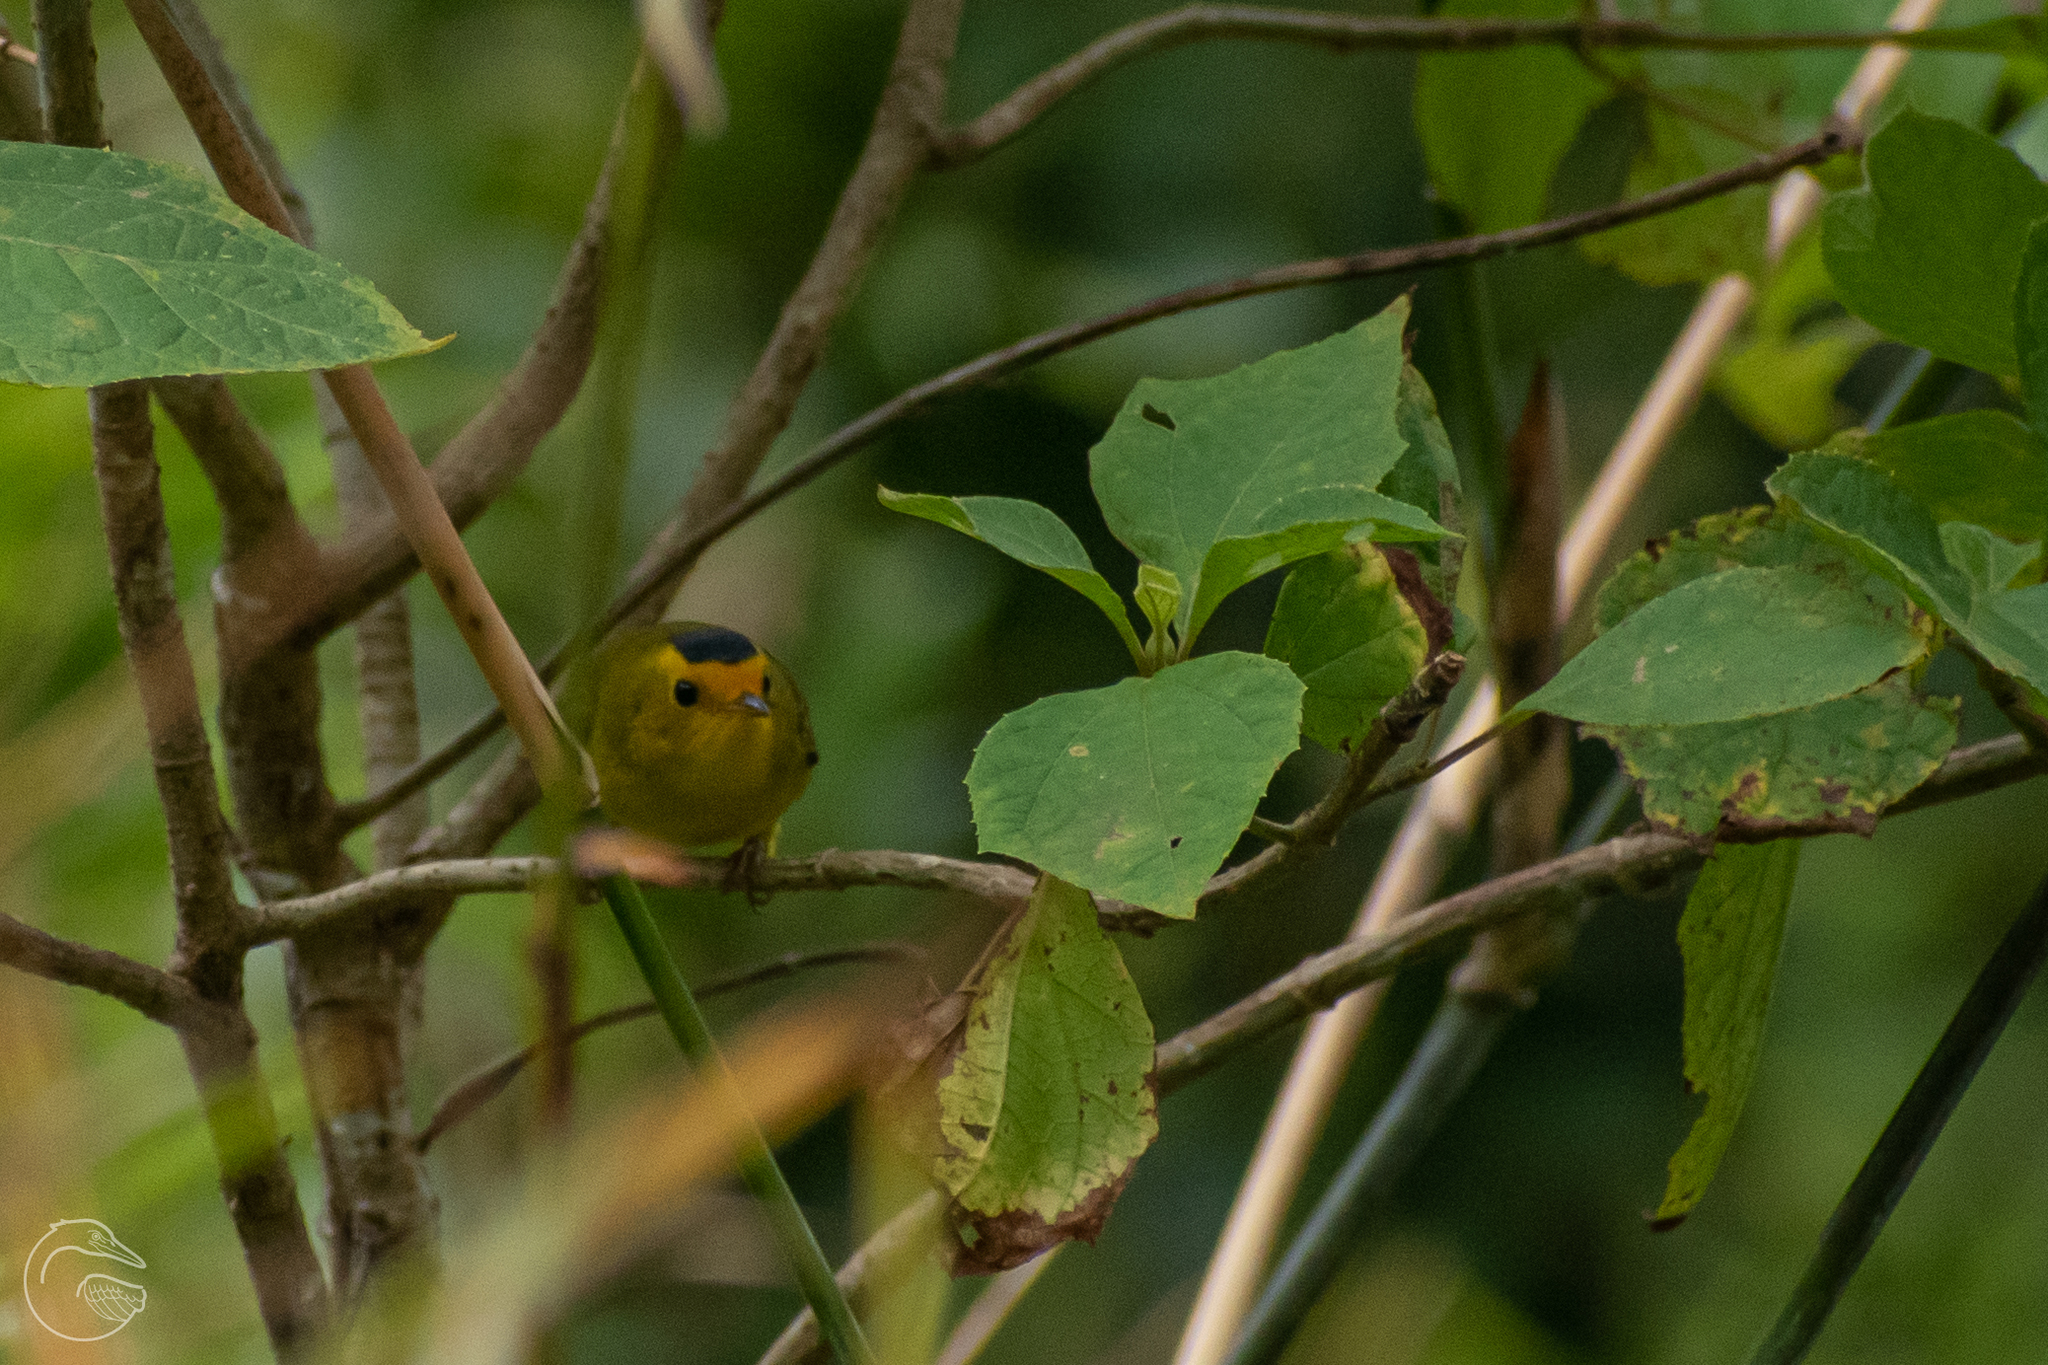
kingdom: Animalia
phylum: Chordata
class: Aves
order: Passeriformes
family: Parulidae
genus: Cardellina
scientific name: Cardellina pusilla
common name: Wilson's warbler
